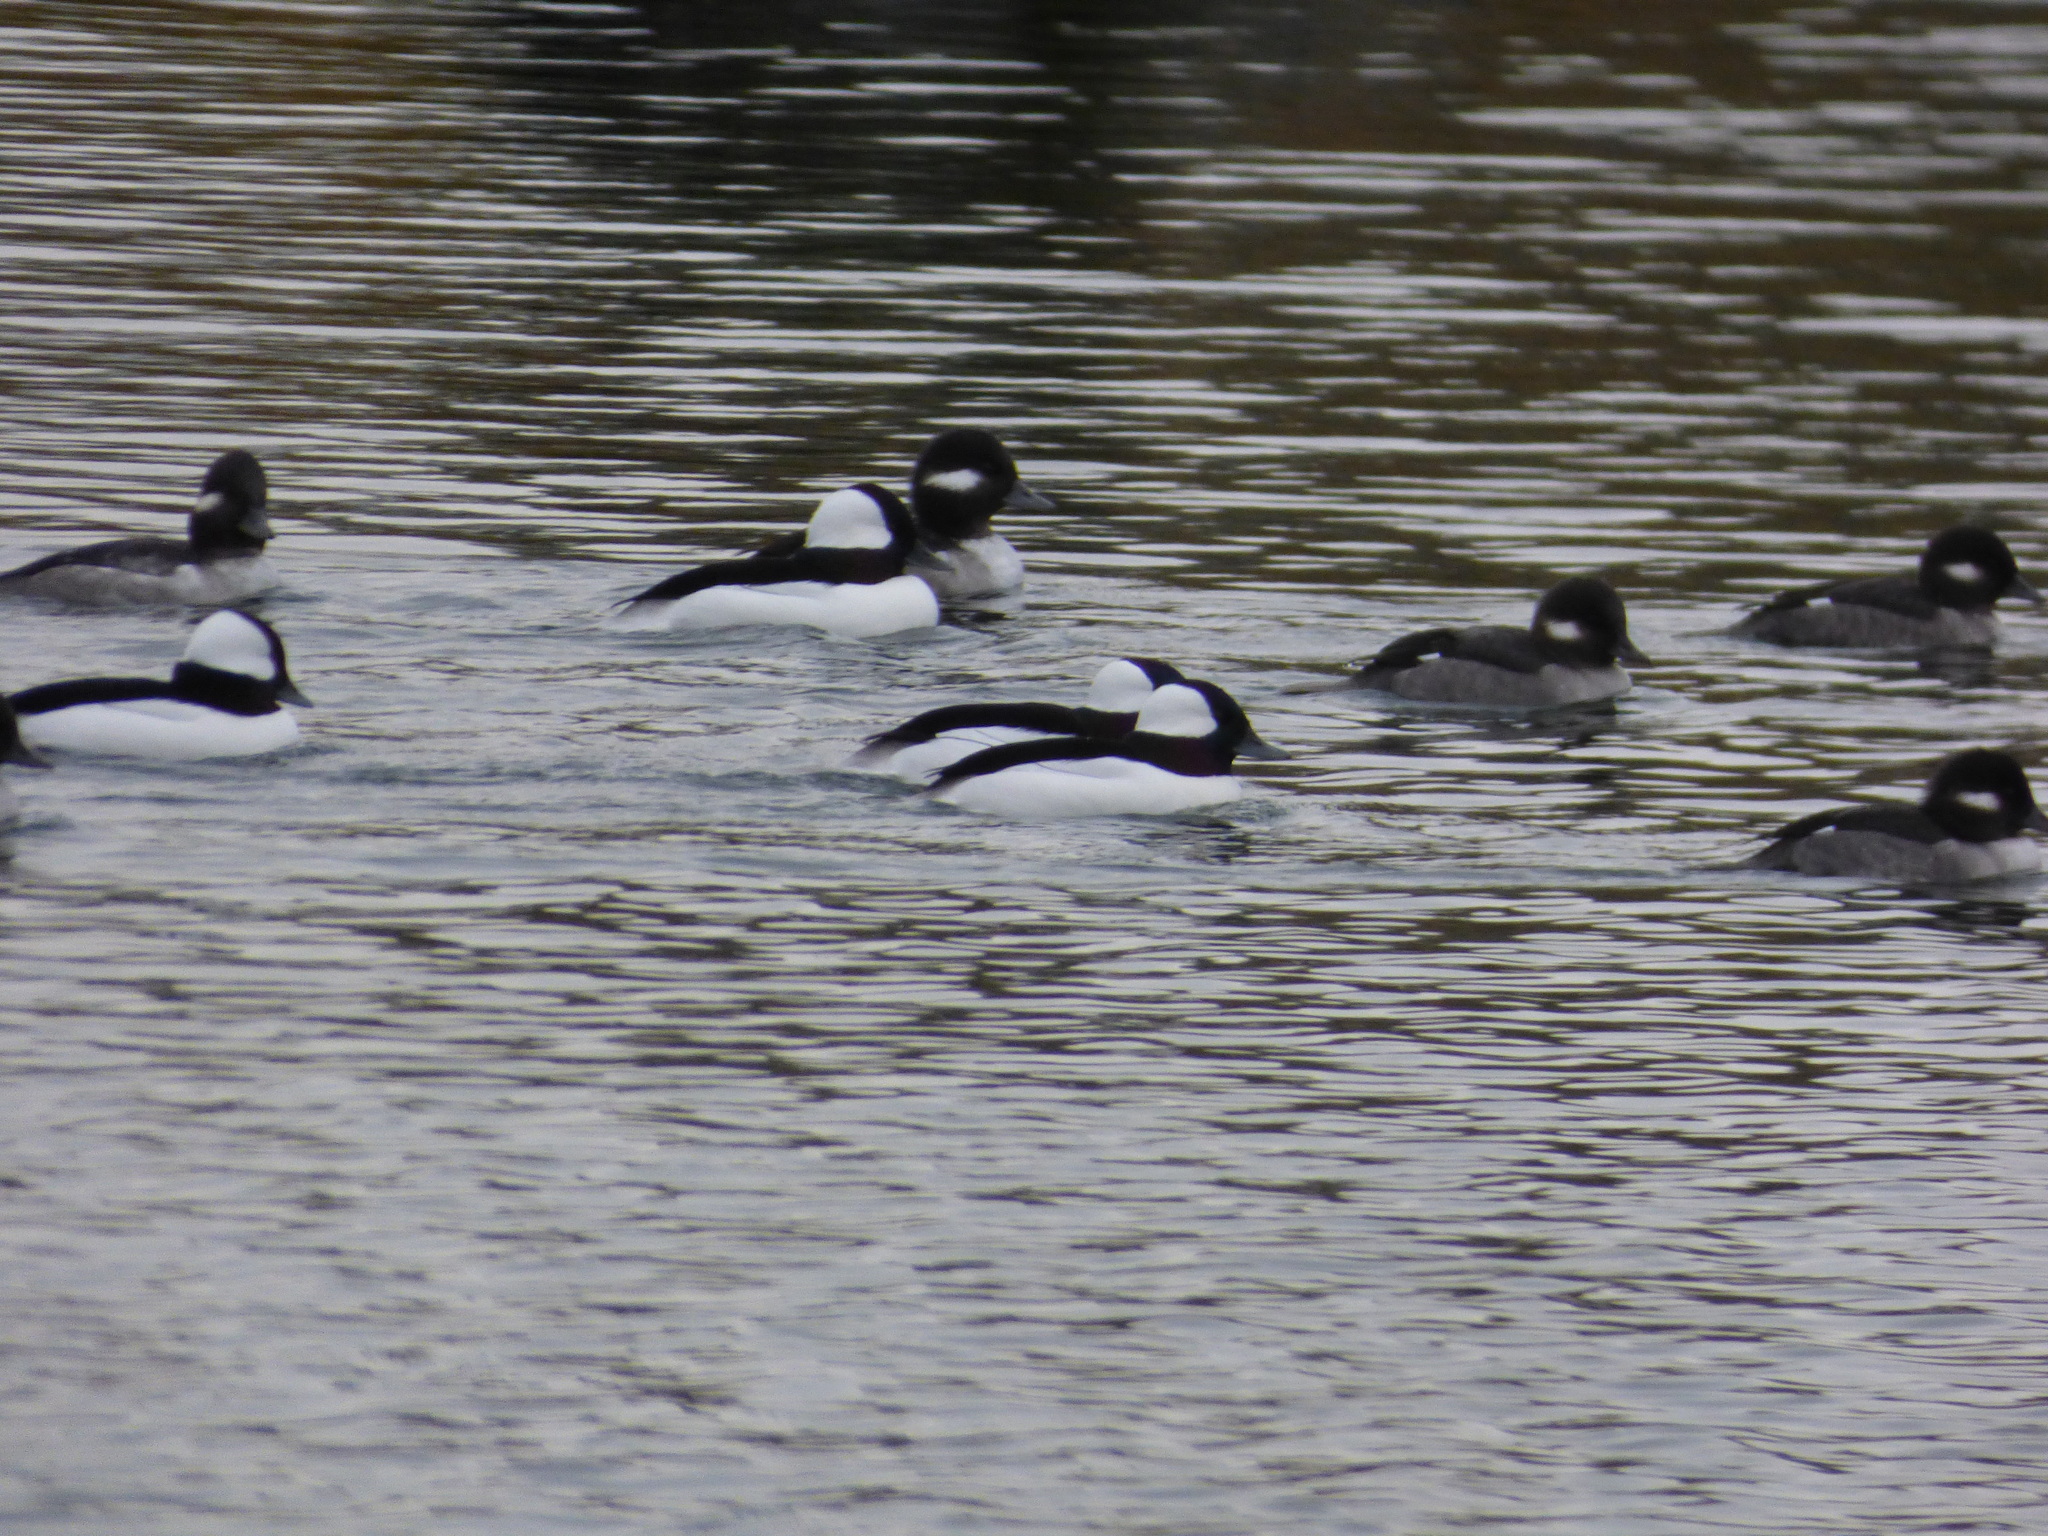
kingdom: Animalia
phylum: Chordata
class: Aves
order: Anseriformes
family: Anatidae
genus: Bucephala
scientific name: Bucephala albeola
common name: Bufflehead
